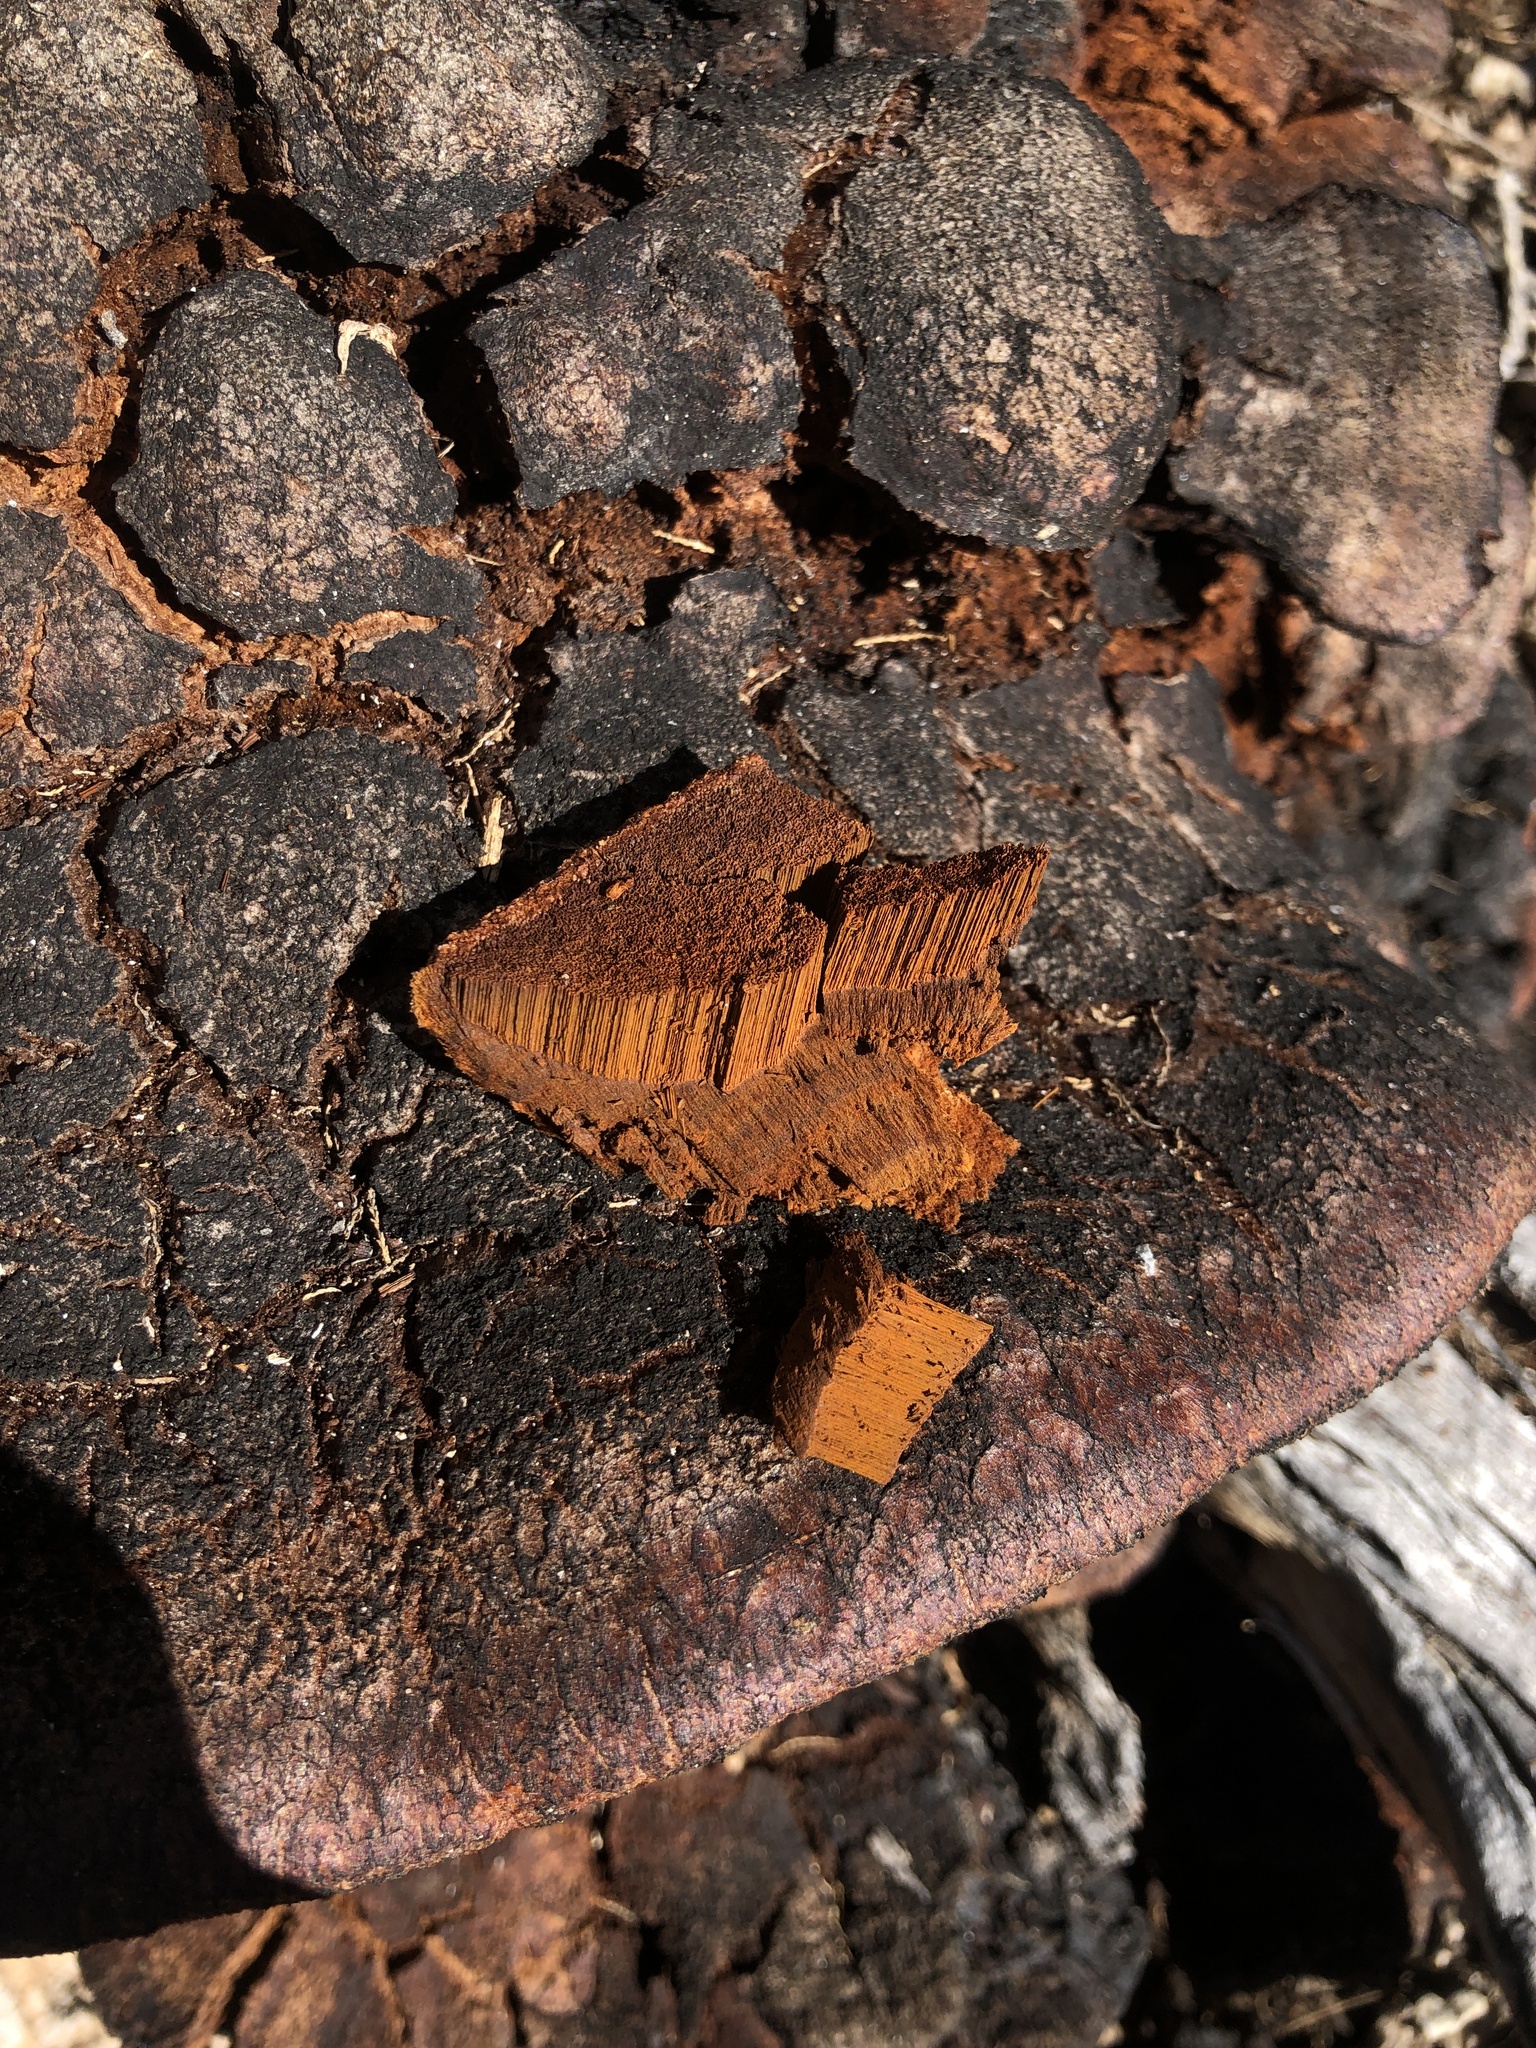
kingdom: Fungi
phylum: Basidiomycota
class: Agaricomycetes
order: Hymenochaetales
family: Hymenochaetaceae
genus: Inonotus
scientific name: Inonotus munzii
